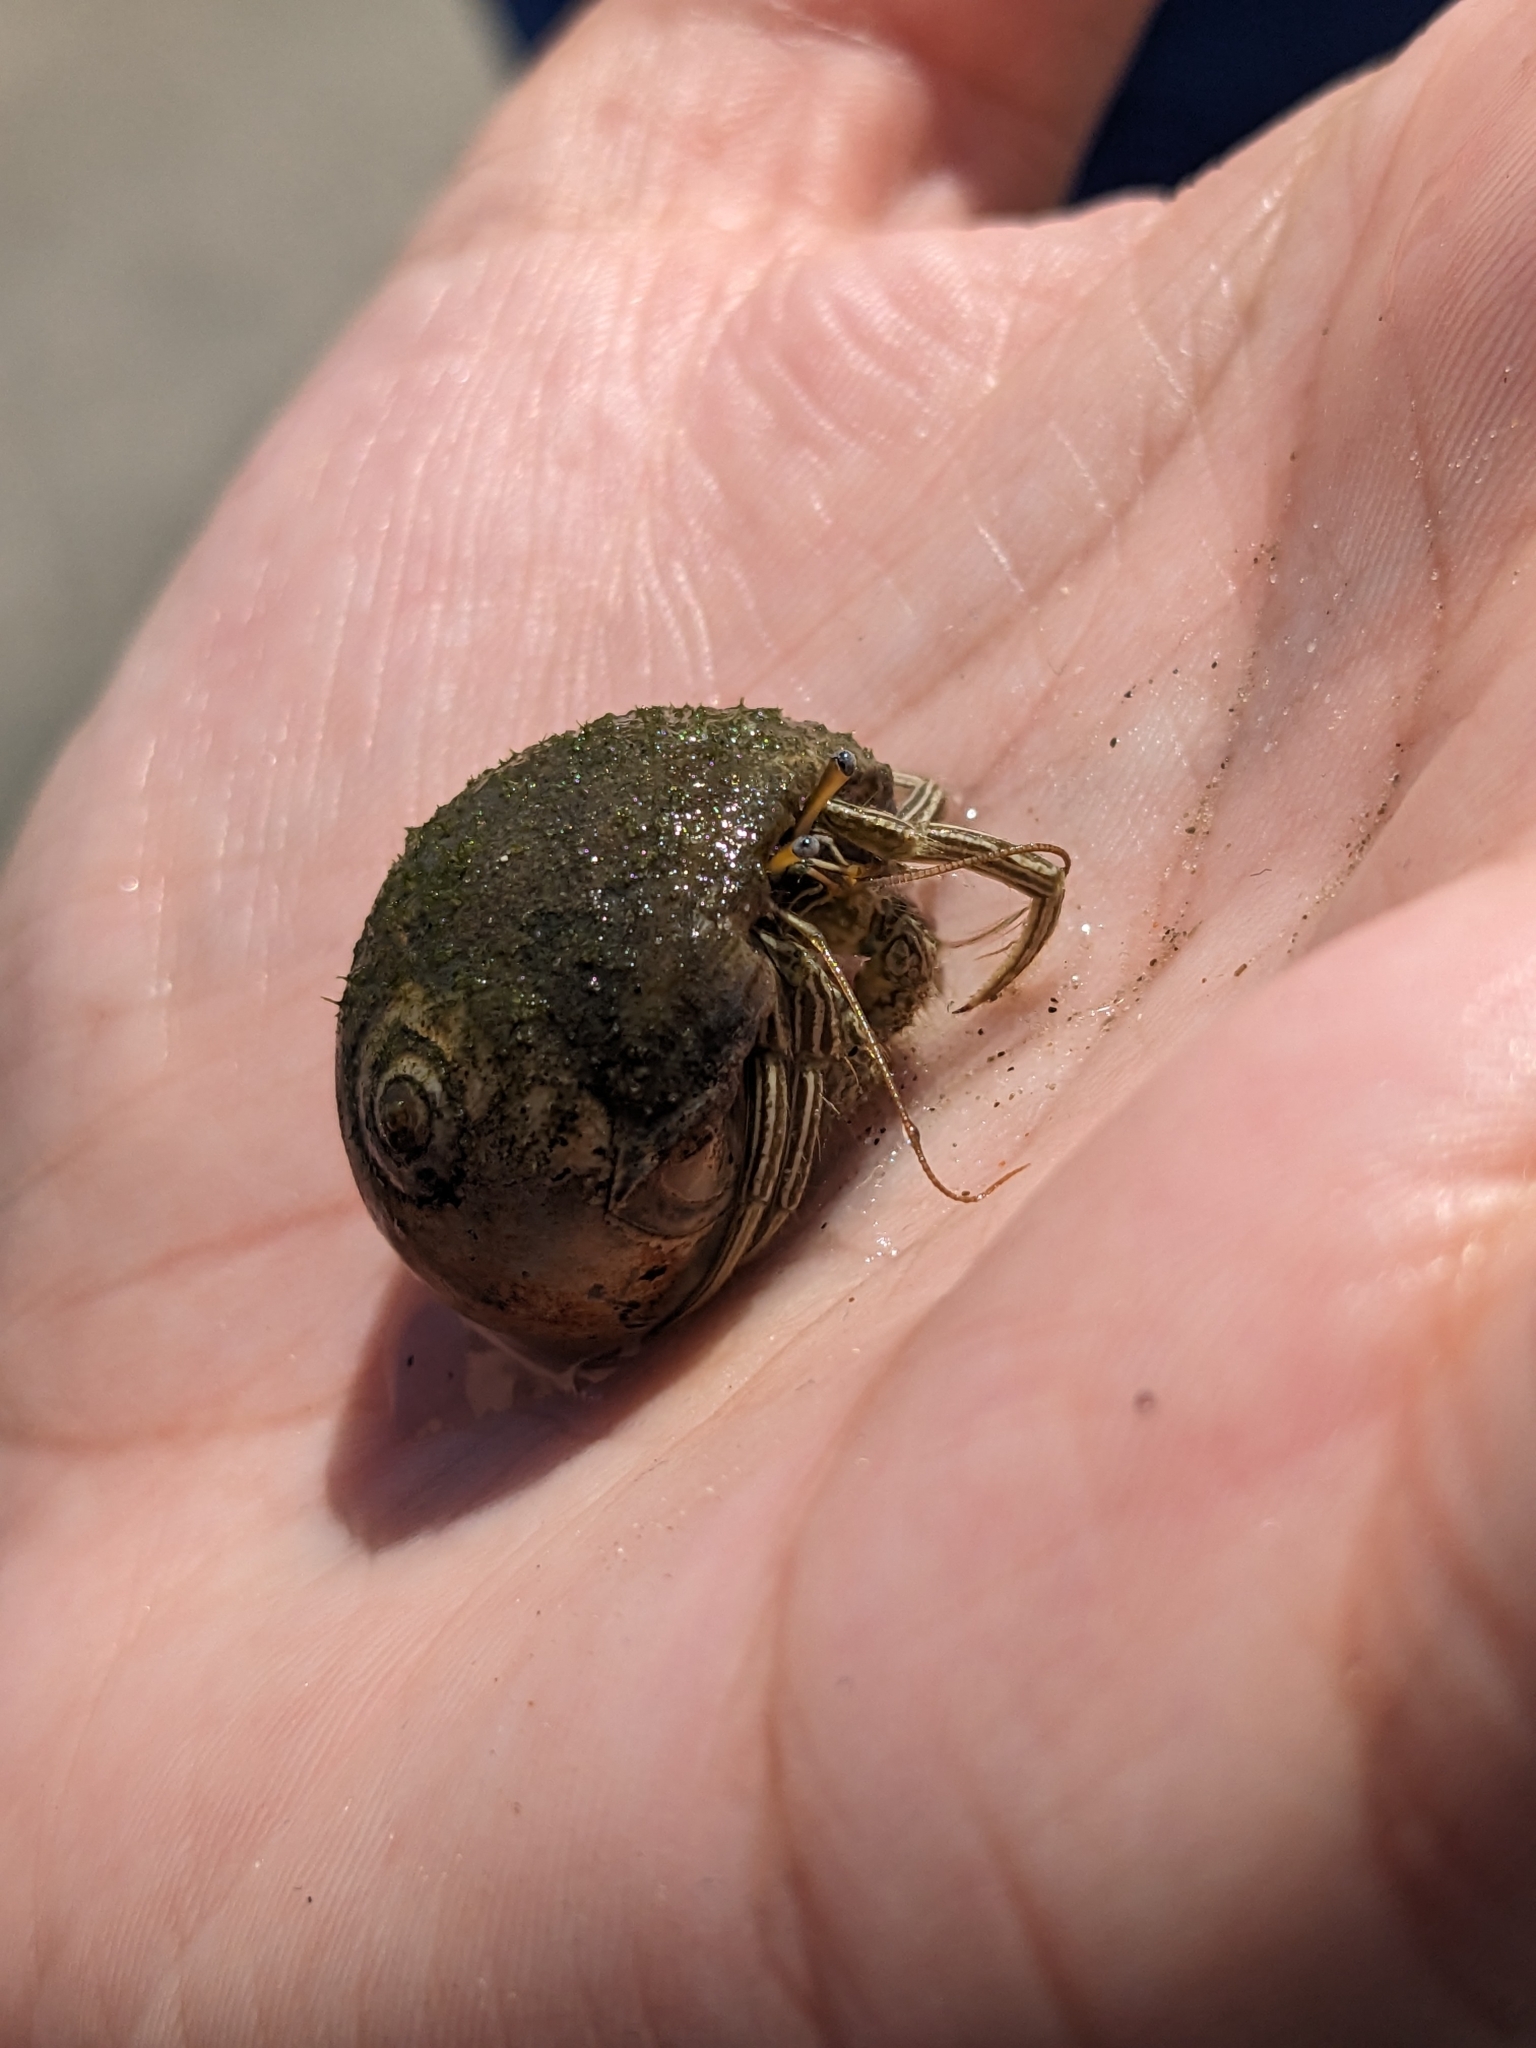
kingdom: Animalia
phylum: Arthropoda
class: Malacostraca
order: Decapoda
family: Diogenidae
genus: Clibanarius
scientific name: Clibanarius vittatus
